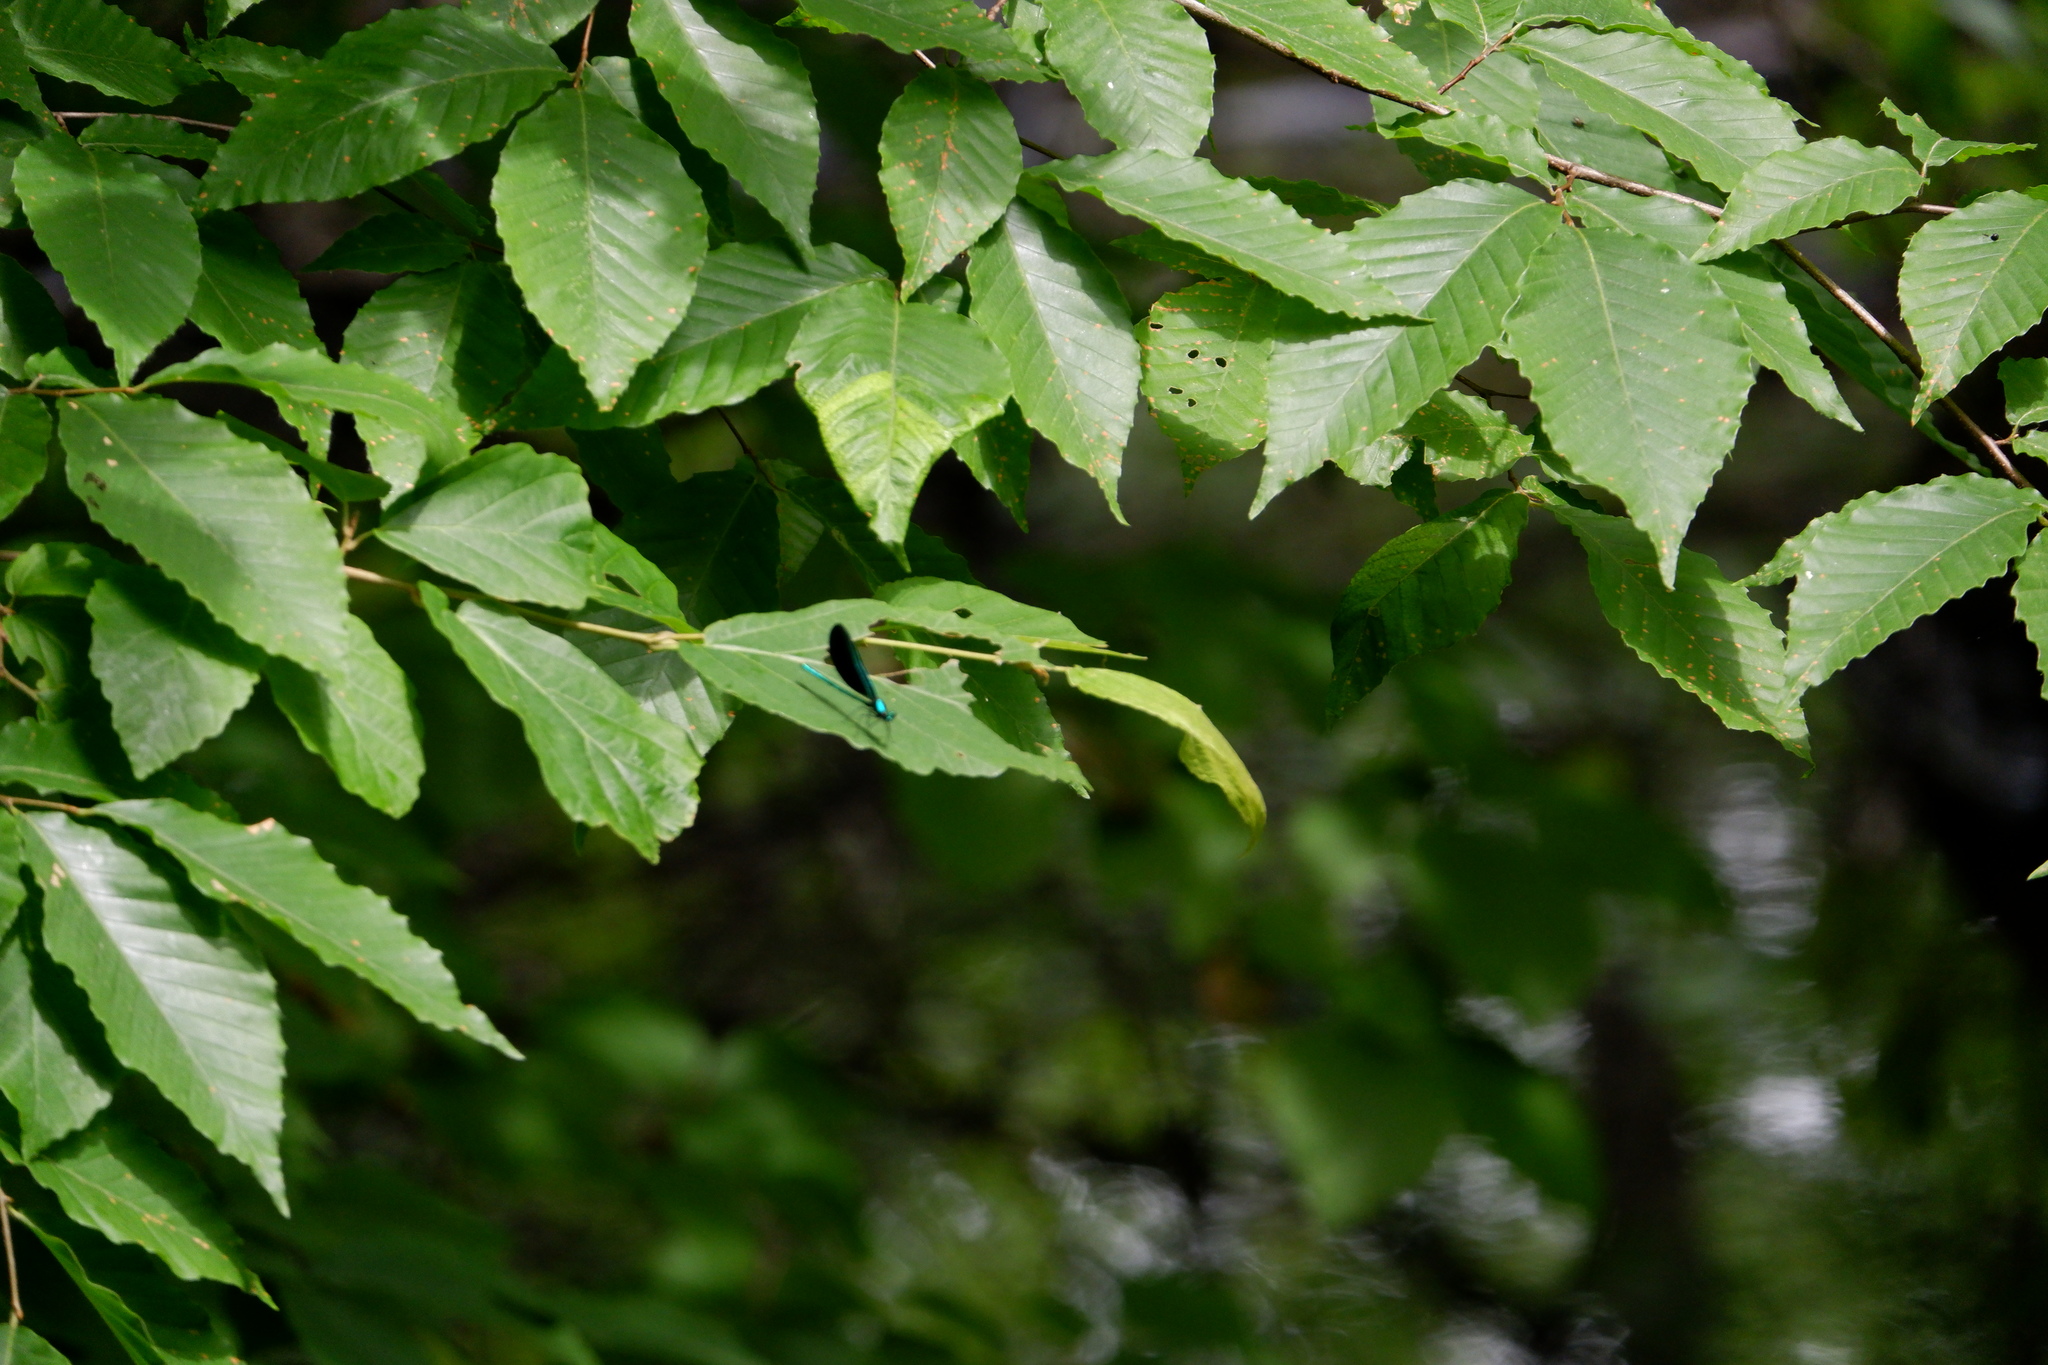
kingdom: Animalia
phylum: Arthropoda
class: Insecta
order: Odonata
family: Calopterygidae
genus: Calopteryx
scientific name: Calopteryx maculata
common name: Ebony jewelwing
